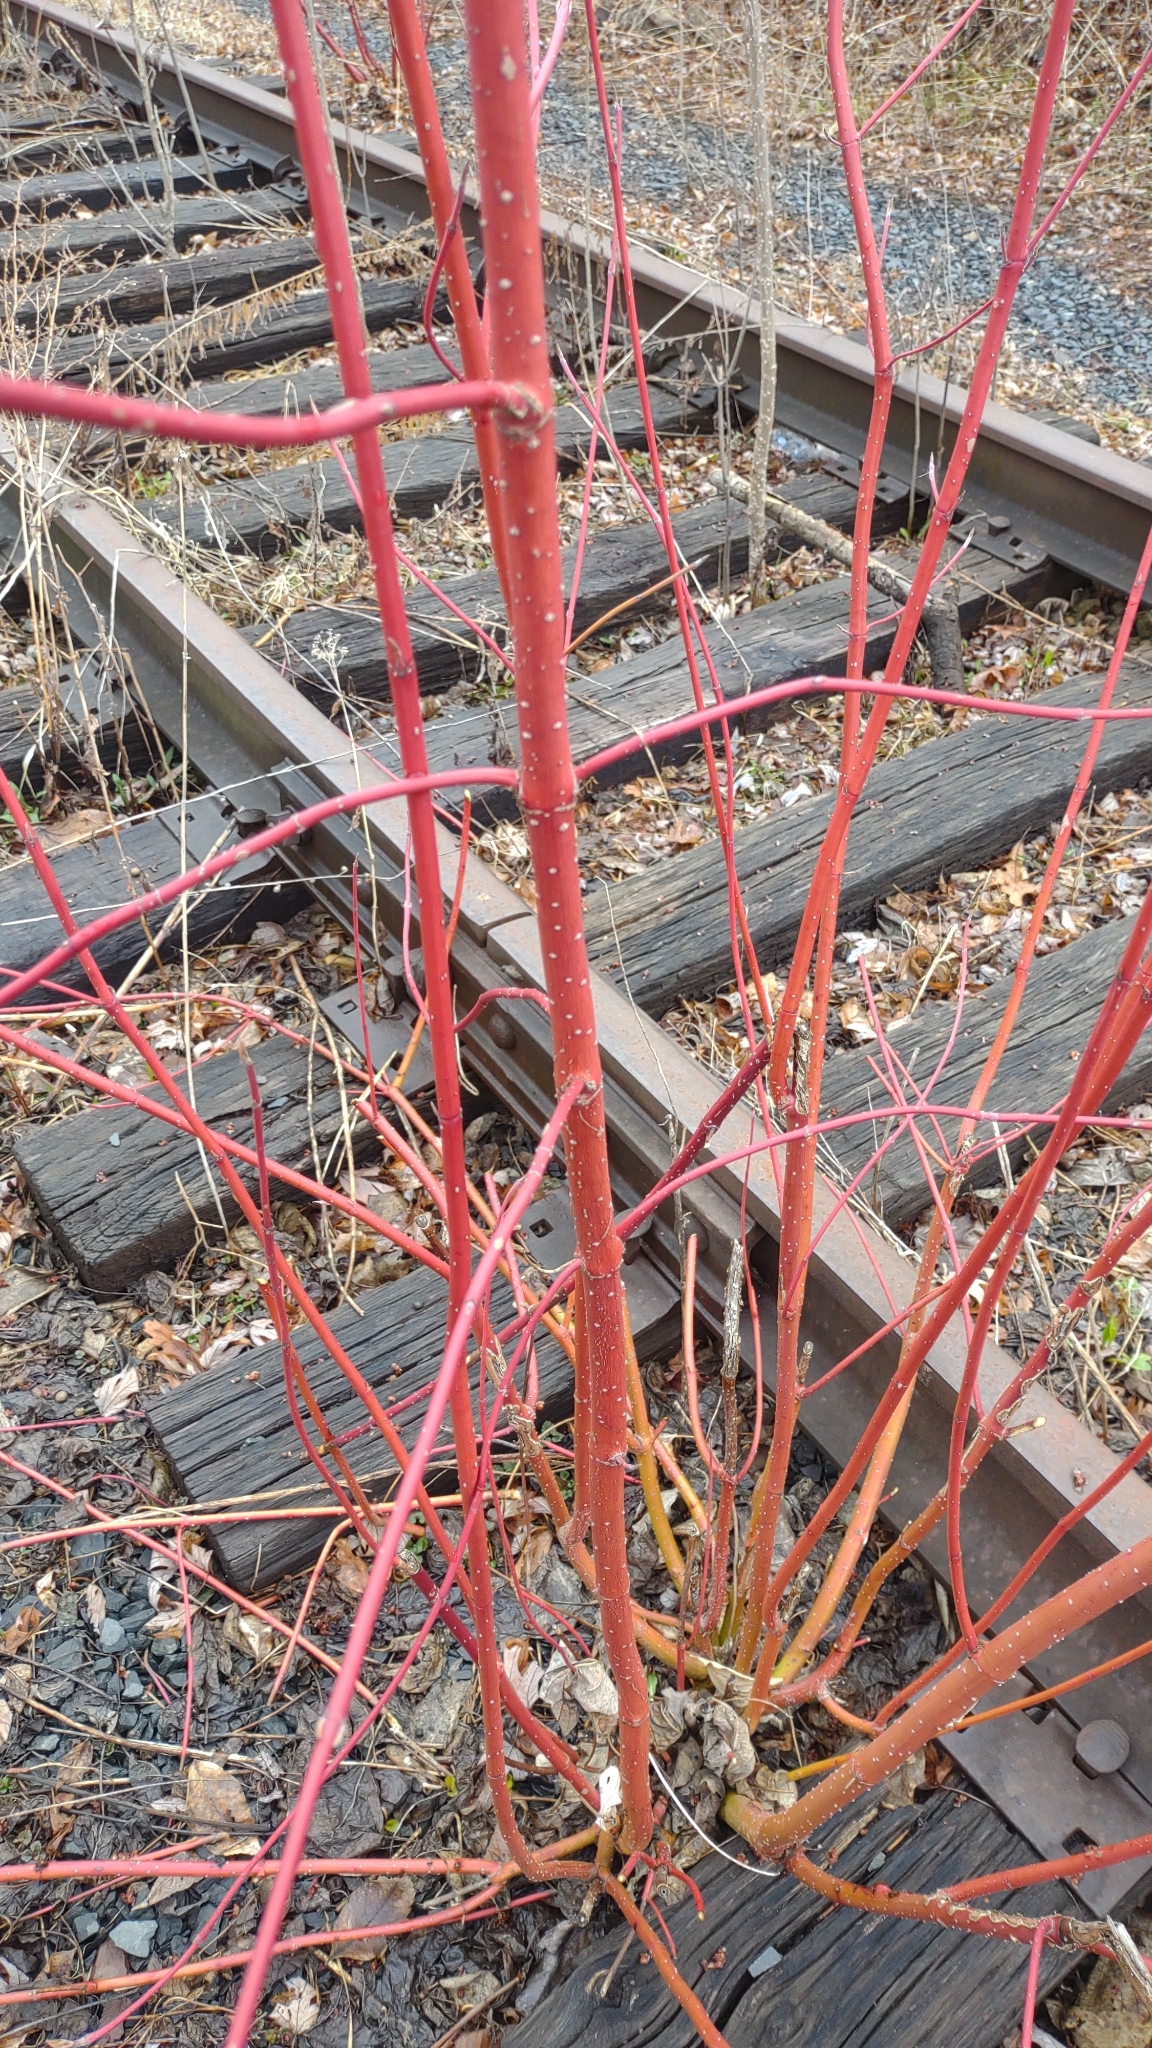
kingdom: Plantae
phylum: Tracheophyta
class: Magnoliopsida
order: Cornales
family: Cornaceae
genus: Cornus
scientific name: Cornus sericea
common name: Red-osier dogwood
